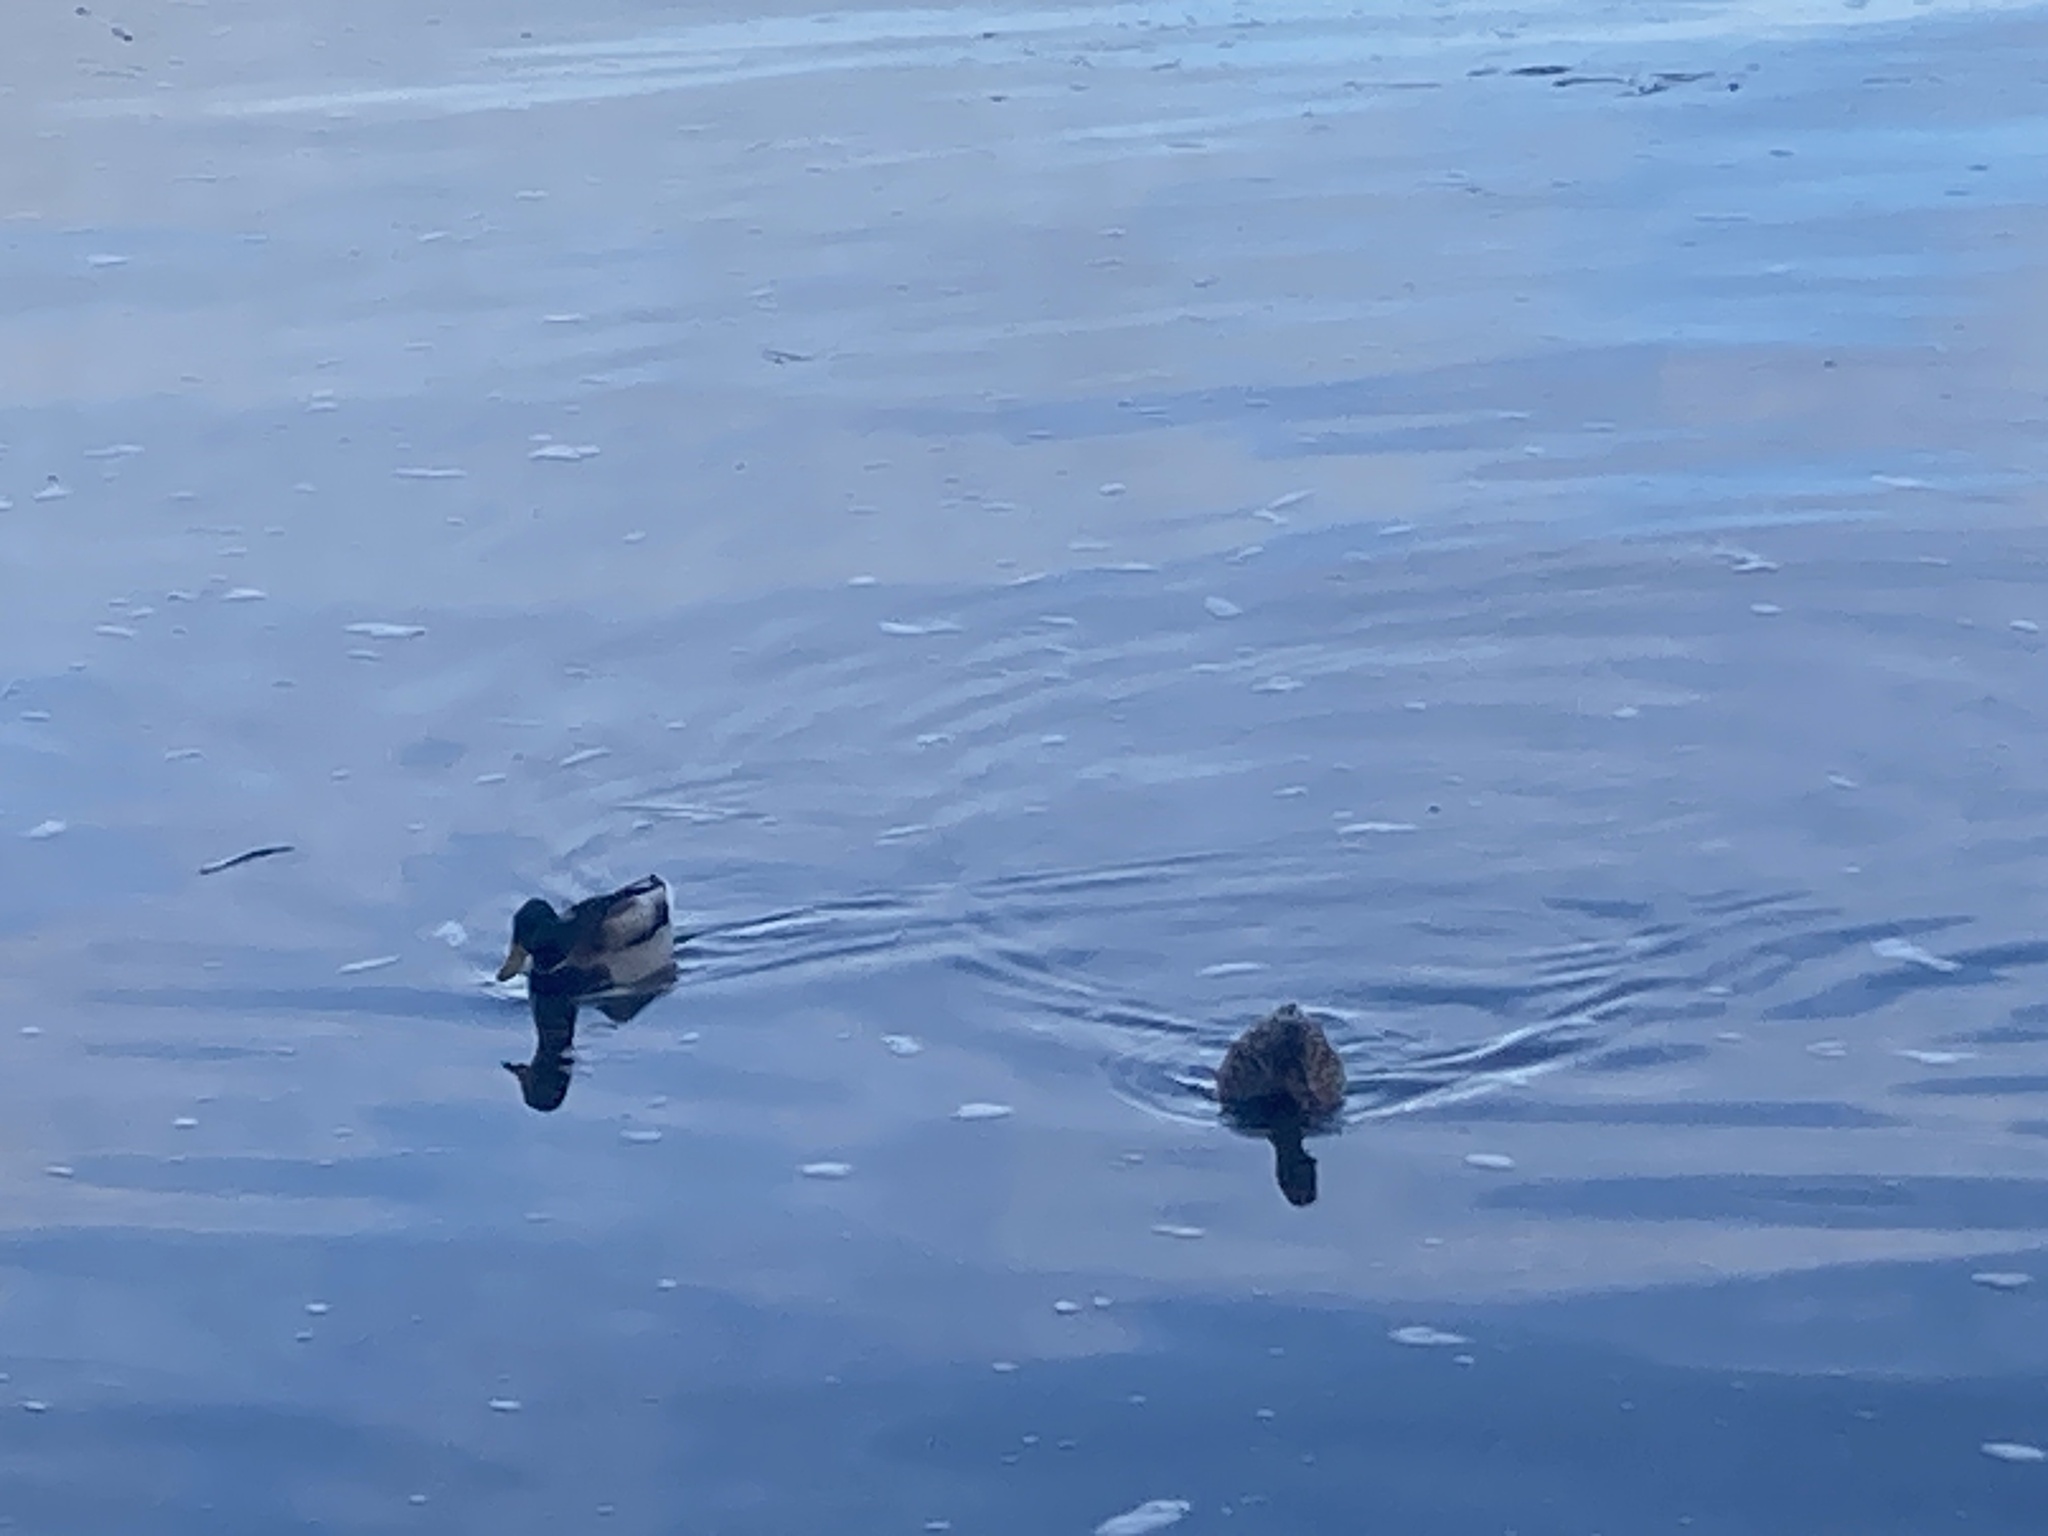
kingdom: Animalia
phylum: Chordata
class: Aves
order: Anseriformes
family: Anatidae
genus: Anas
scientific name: Anas platyrhynchos
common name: Mallard
